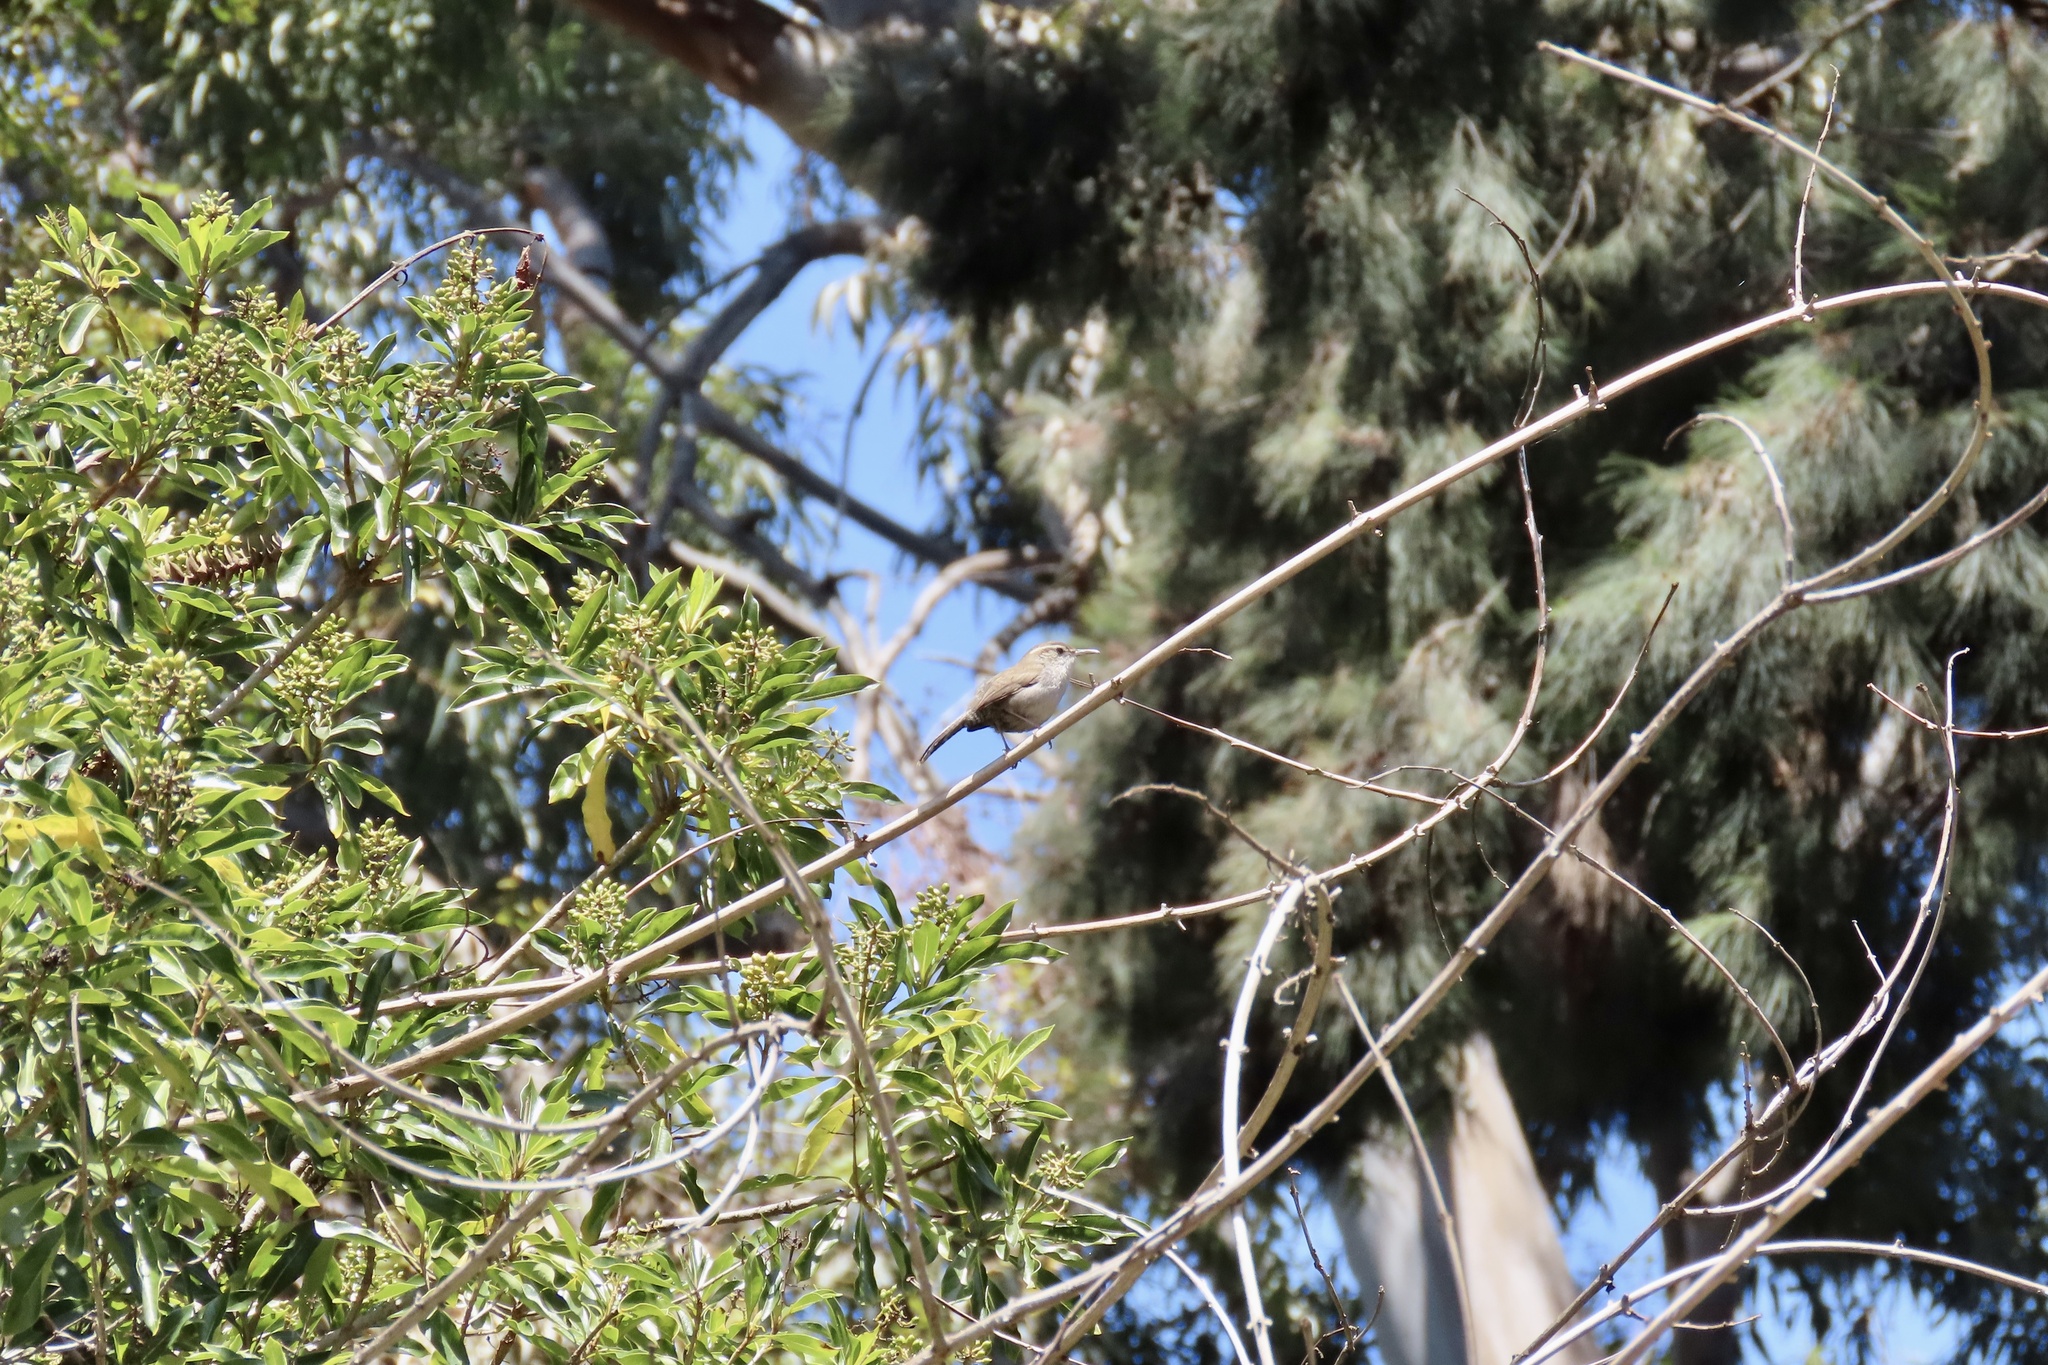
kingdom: Animalia
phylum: Chordata
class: Aves
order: Passeriformes
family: Troglodytidae
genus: Thryomanes
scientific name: Thryomanes bewickii
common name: Bewick's wren
